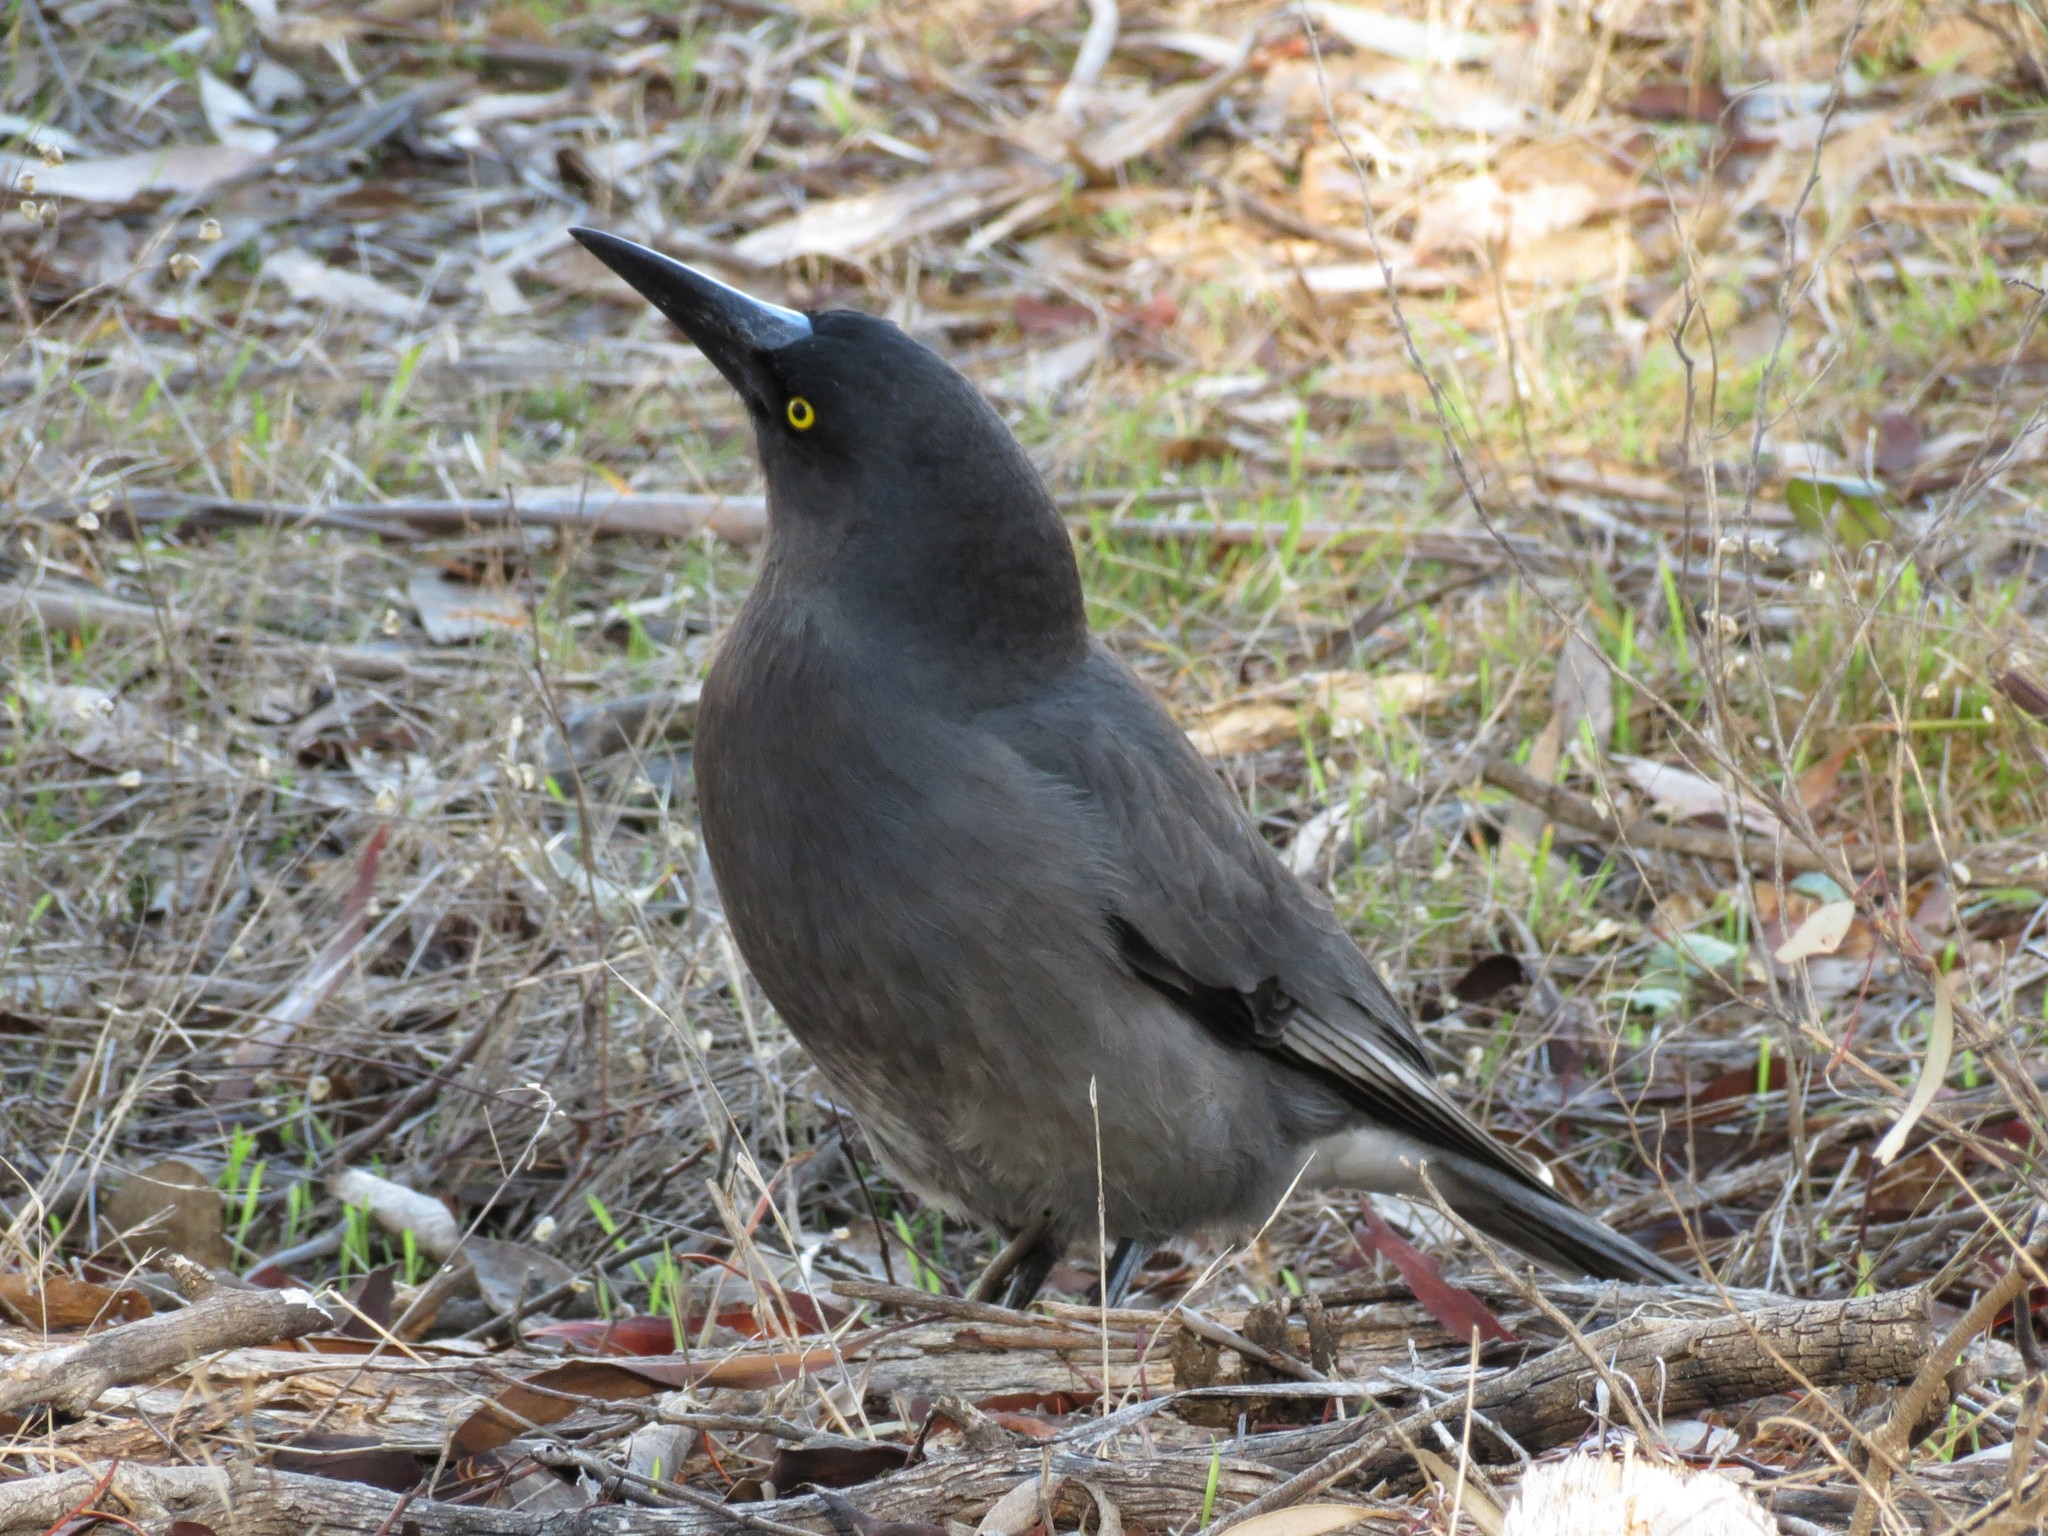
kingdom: Animalia
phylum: Chordata
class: Aves
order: Passeriformes
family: Cracticidae
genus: Strepera
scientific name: Strepera versicolor
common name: Grey currawong
